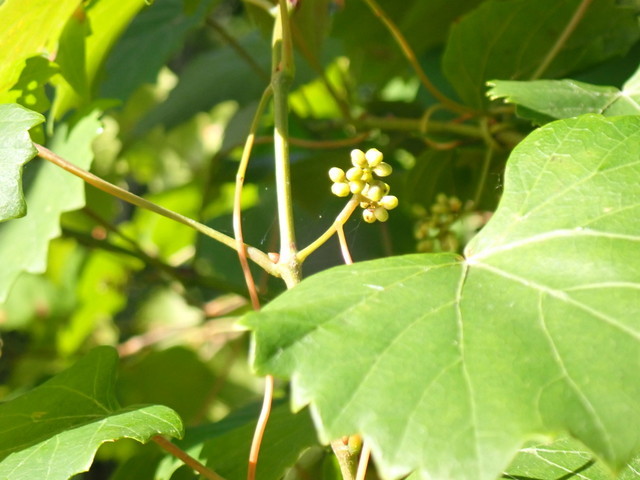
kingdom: Plantae
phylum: Tracheophyta
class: Magnoliopsida
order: Vitales
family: Vitaceae
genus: Vitis
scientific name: Vitis rotundifolia
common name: Muscadine grape
